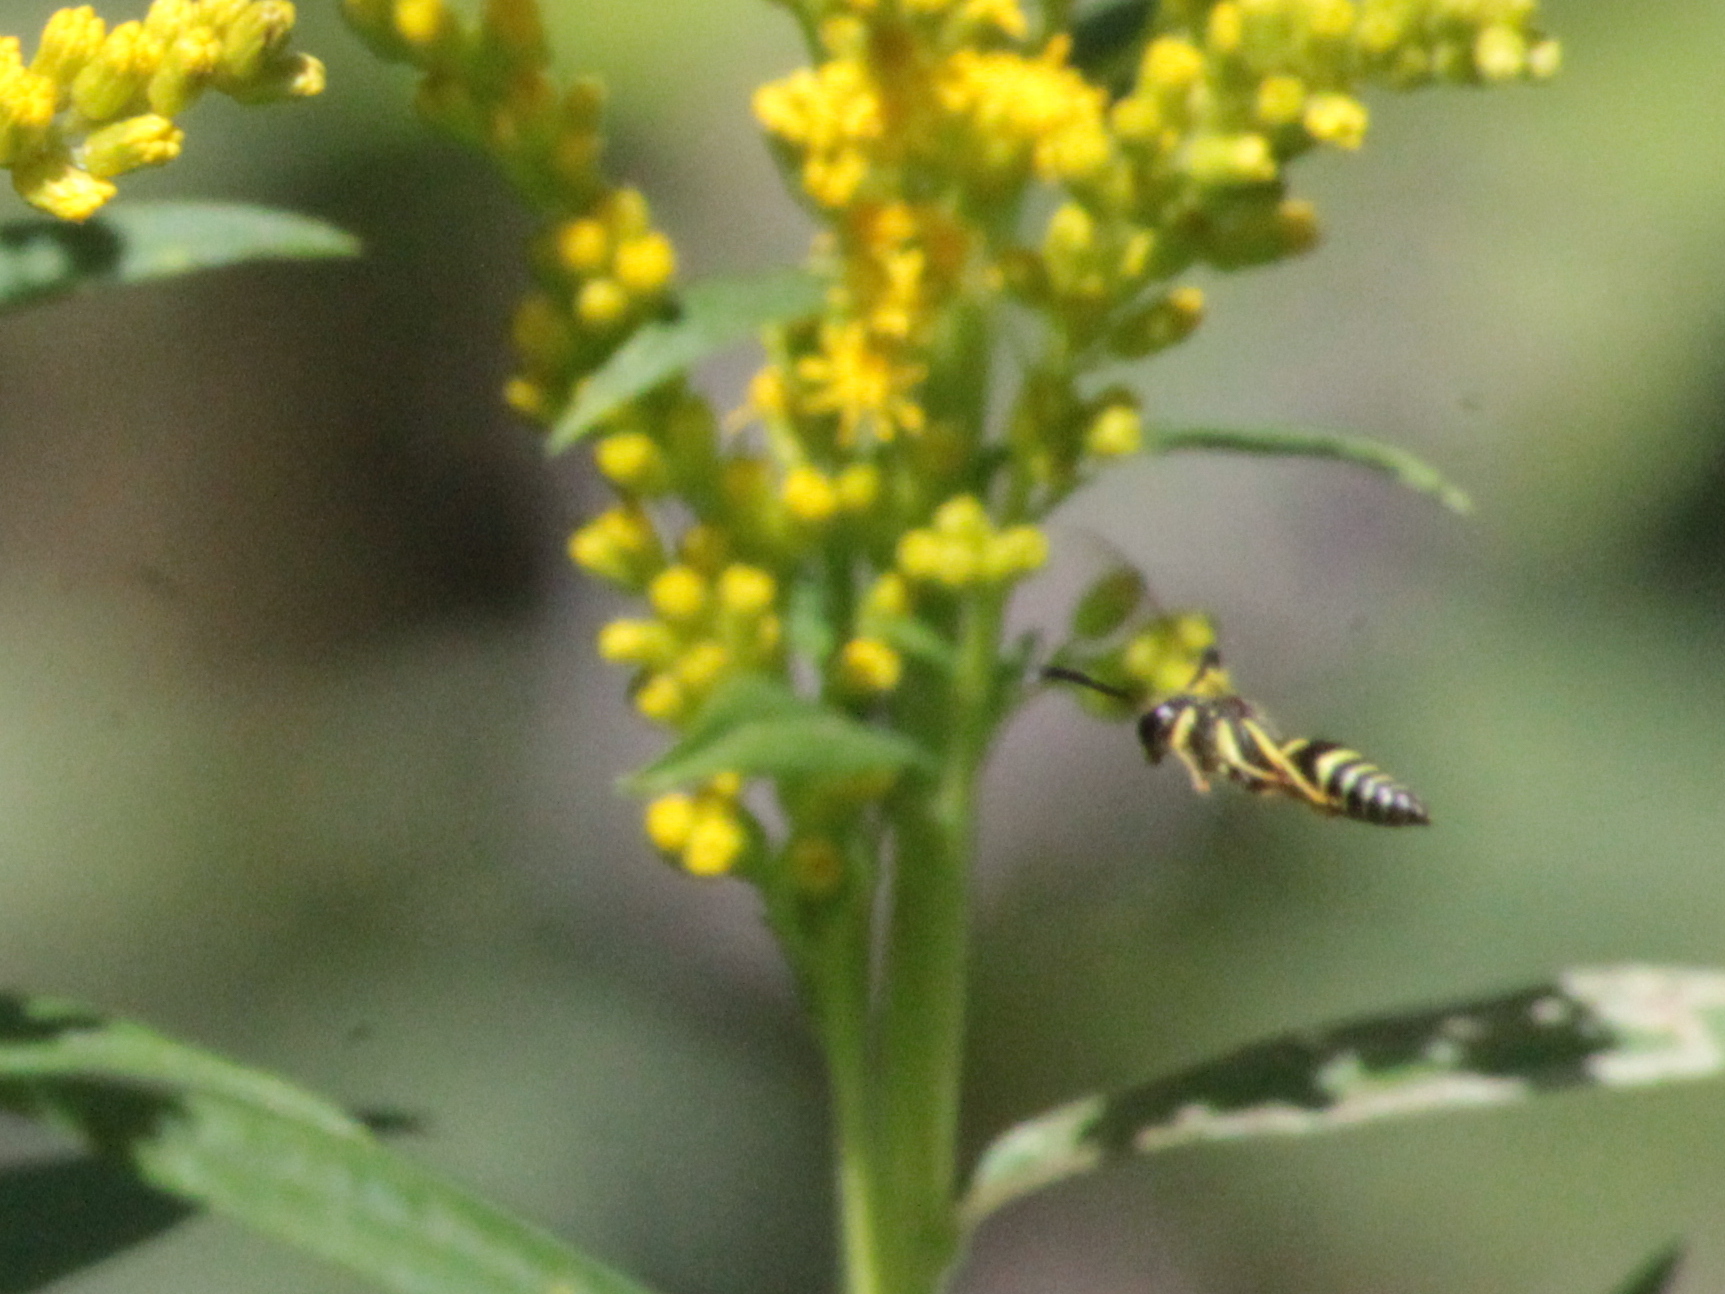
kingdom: Animalia
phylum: Arthropoda
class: Insecta
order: Hymenoptera
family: Vespidae
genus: Ancistrocerus
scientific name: Ancistrocerus
